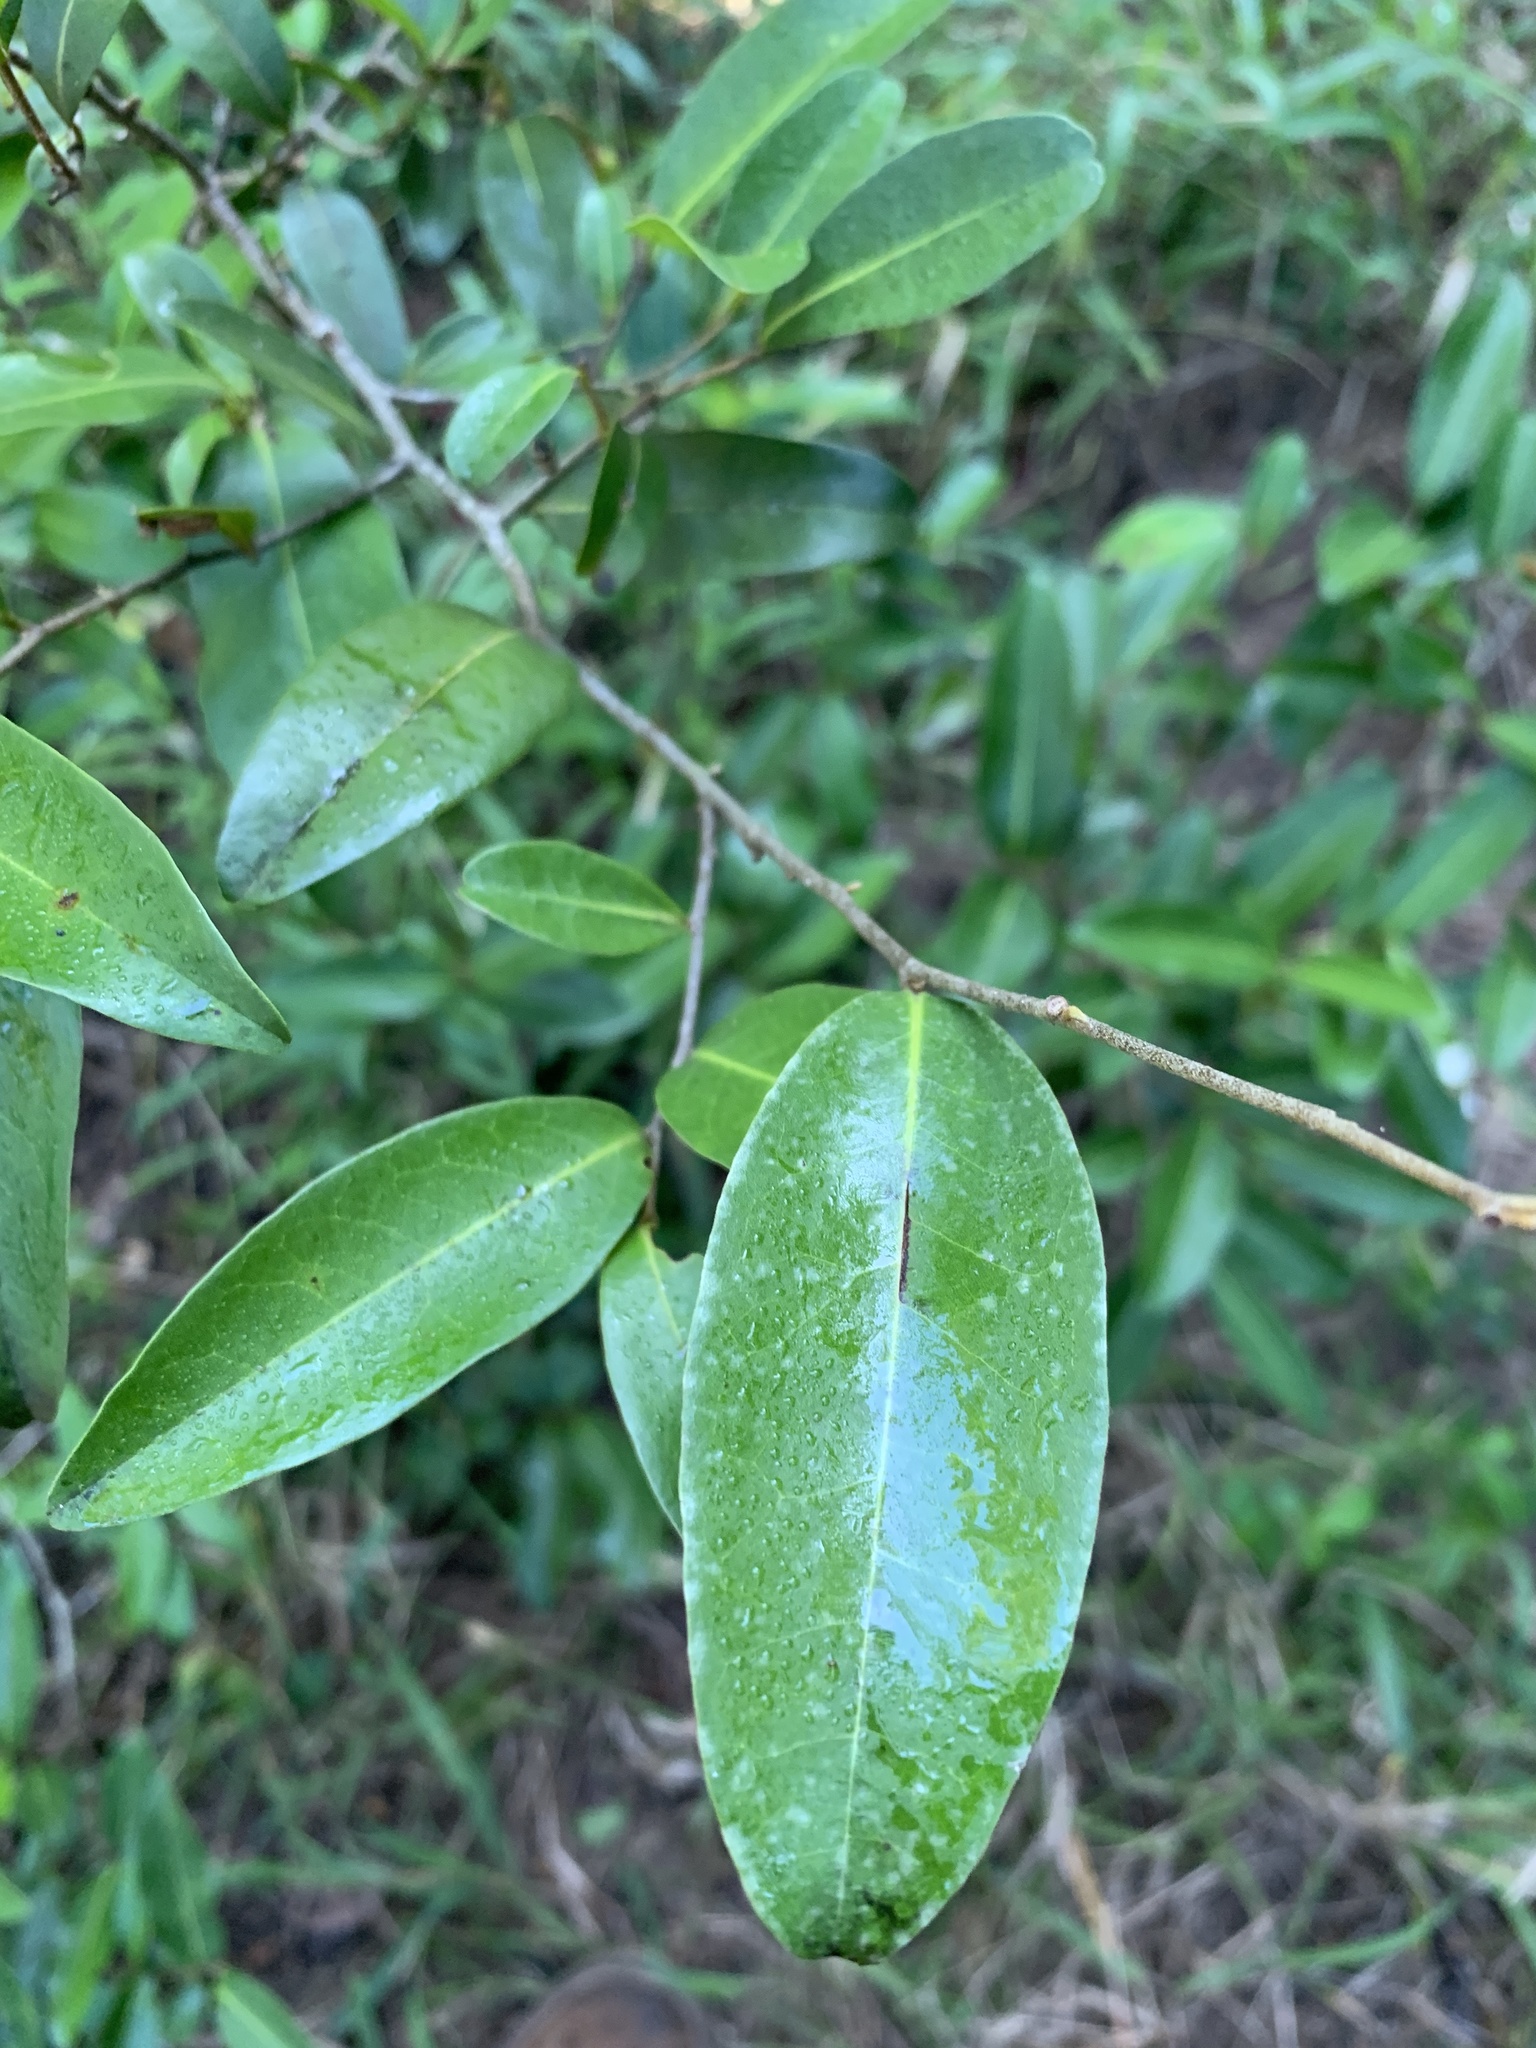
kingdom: Plantae
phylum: Tracheophyta
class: Magnoliopsida
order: Magnoliales
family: Annonaceae
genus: Uvaria
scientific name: Uvaria caffra
